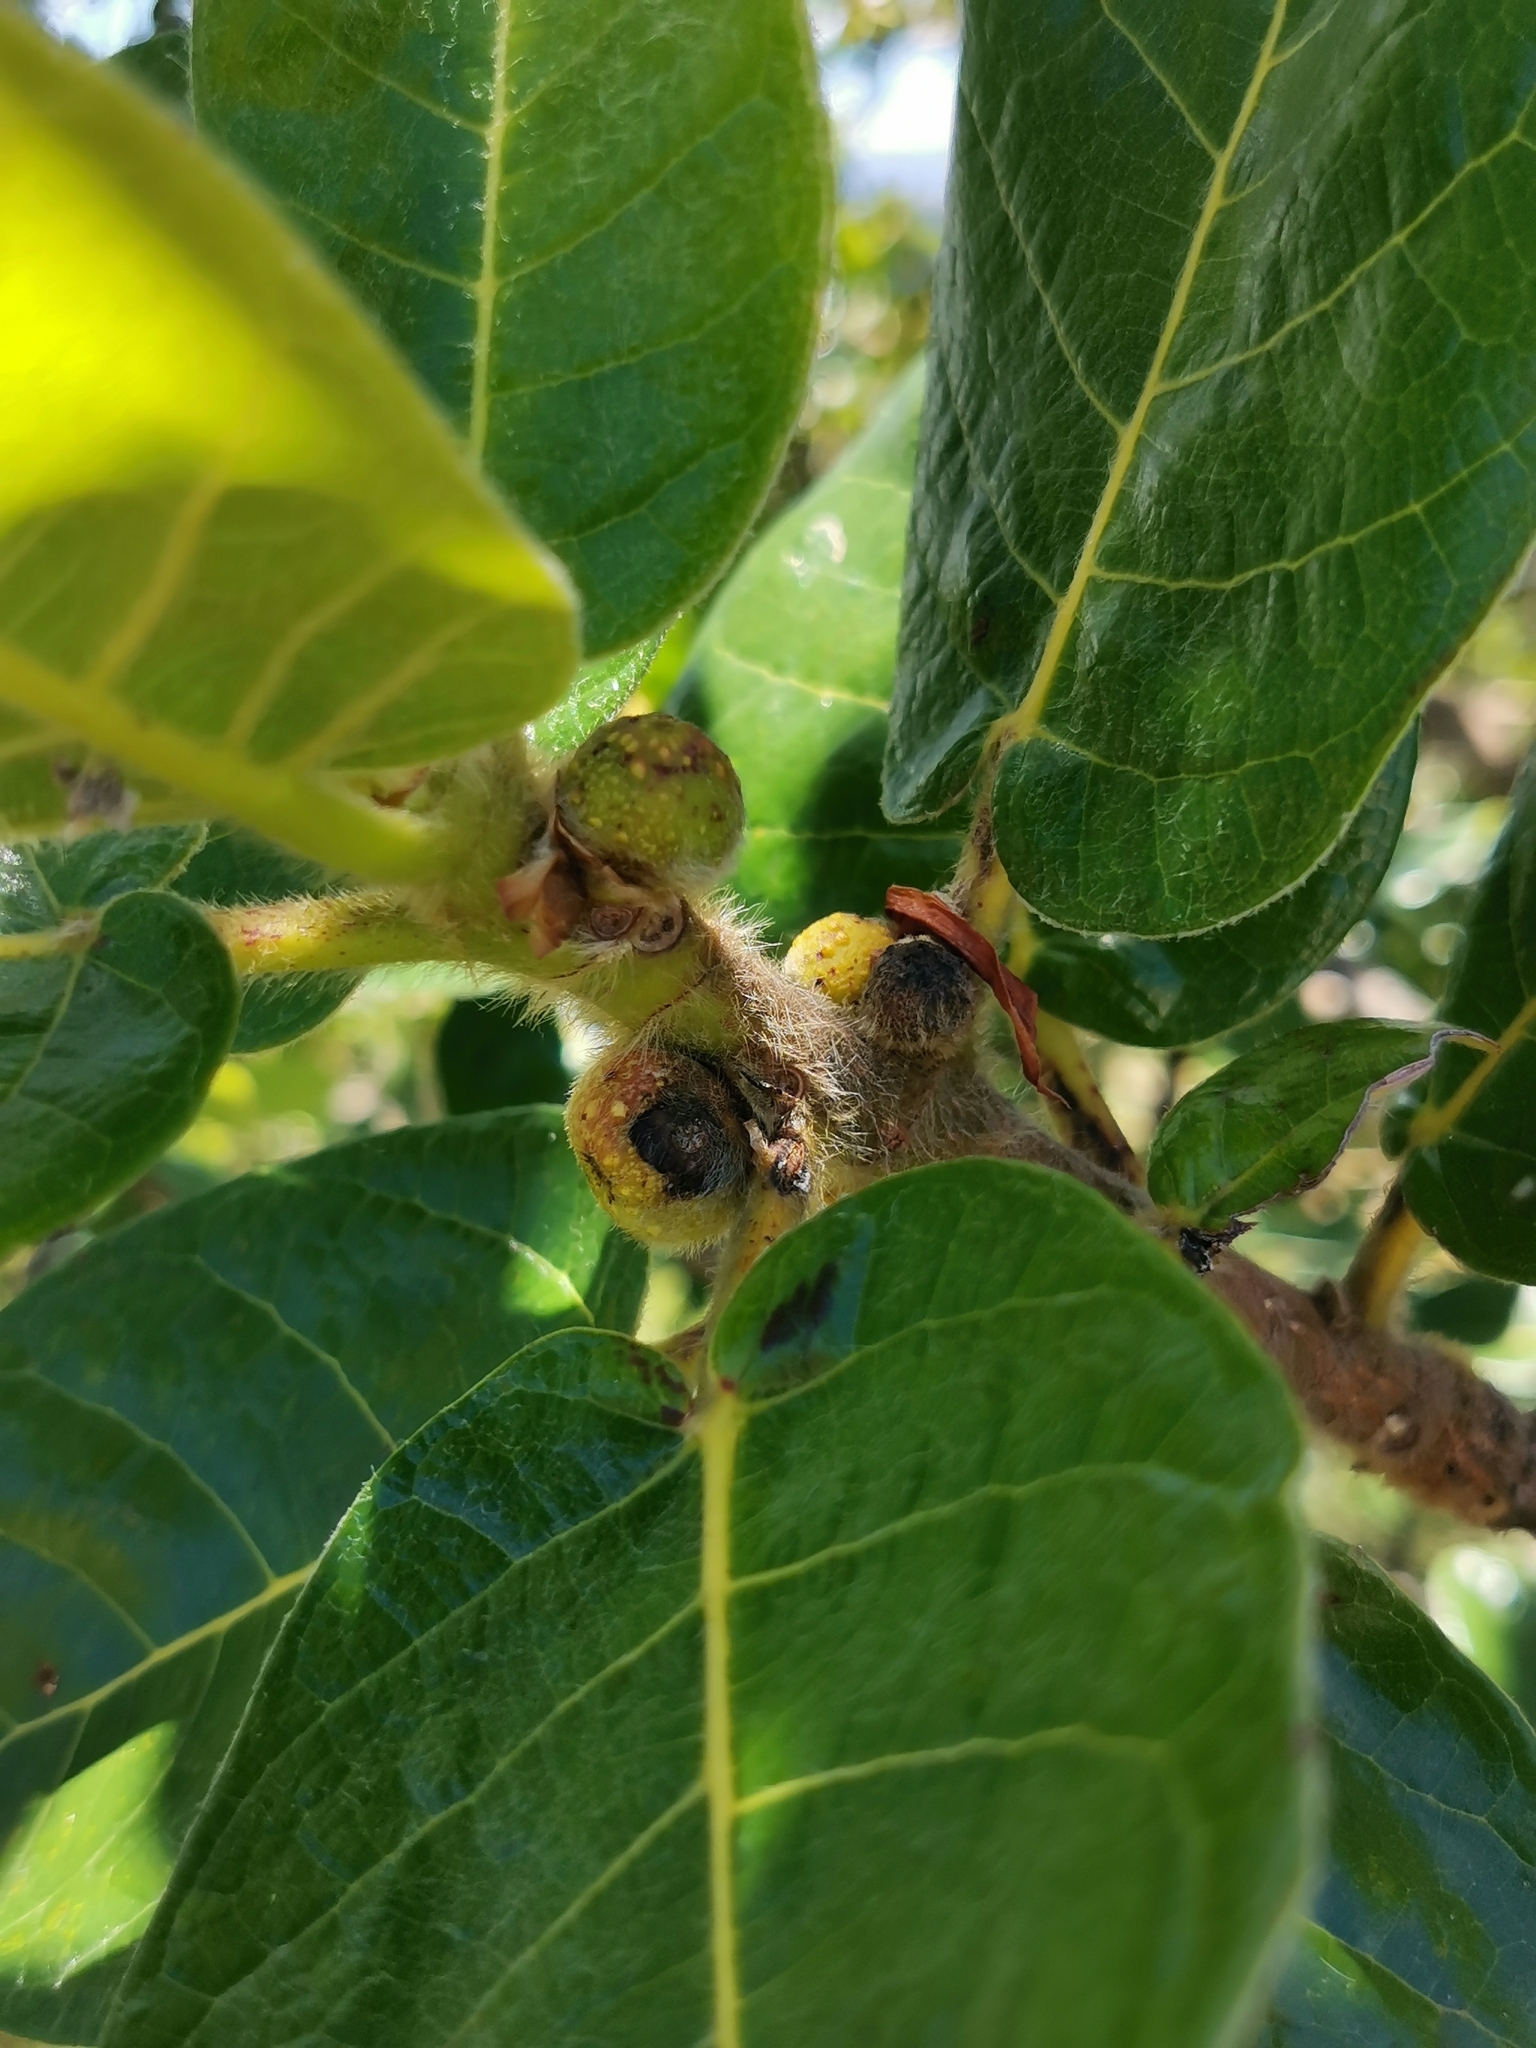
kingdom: Plantae
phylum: Tracheophyta
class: Magnoliopsida
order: Rosales
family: Moraceae
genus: Ficus
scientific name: Ficus glumosa
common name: Hairy rock fig
